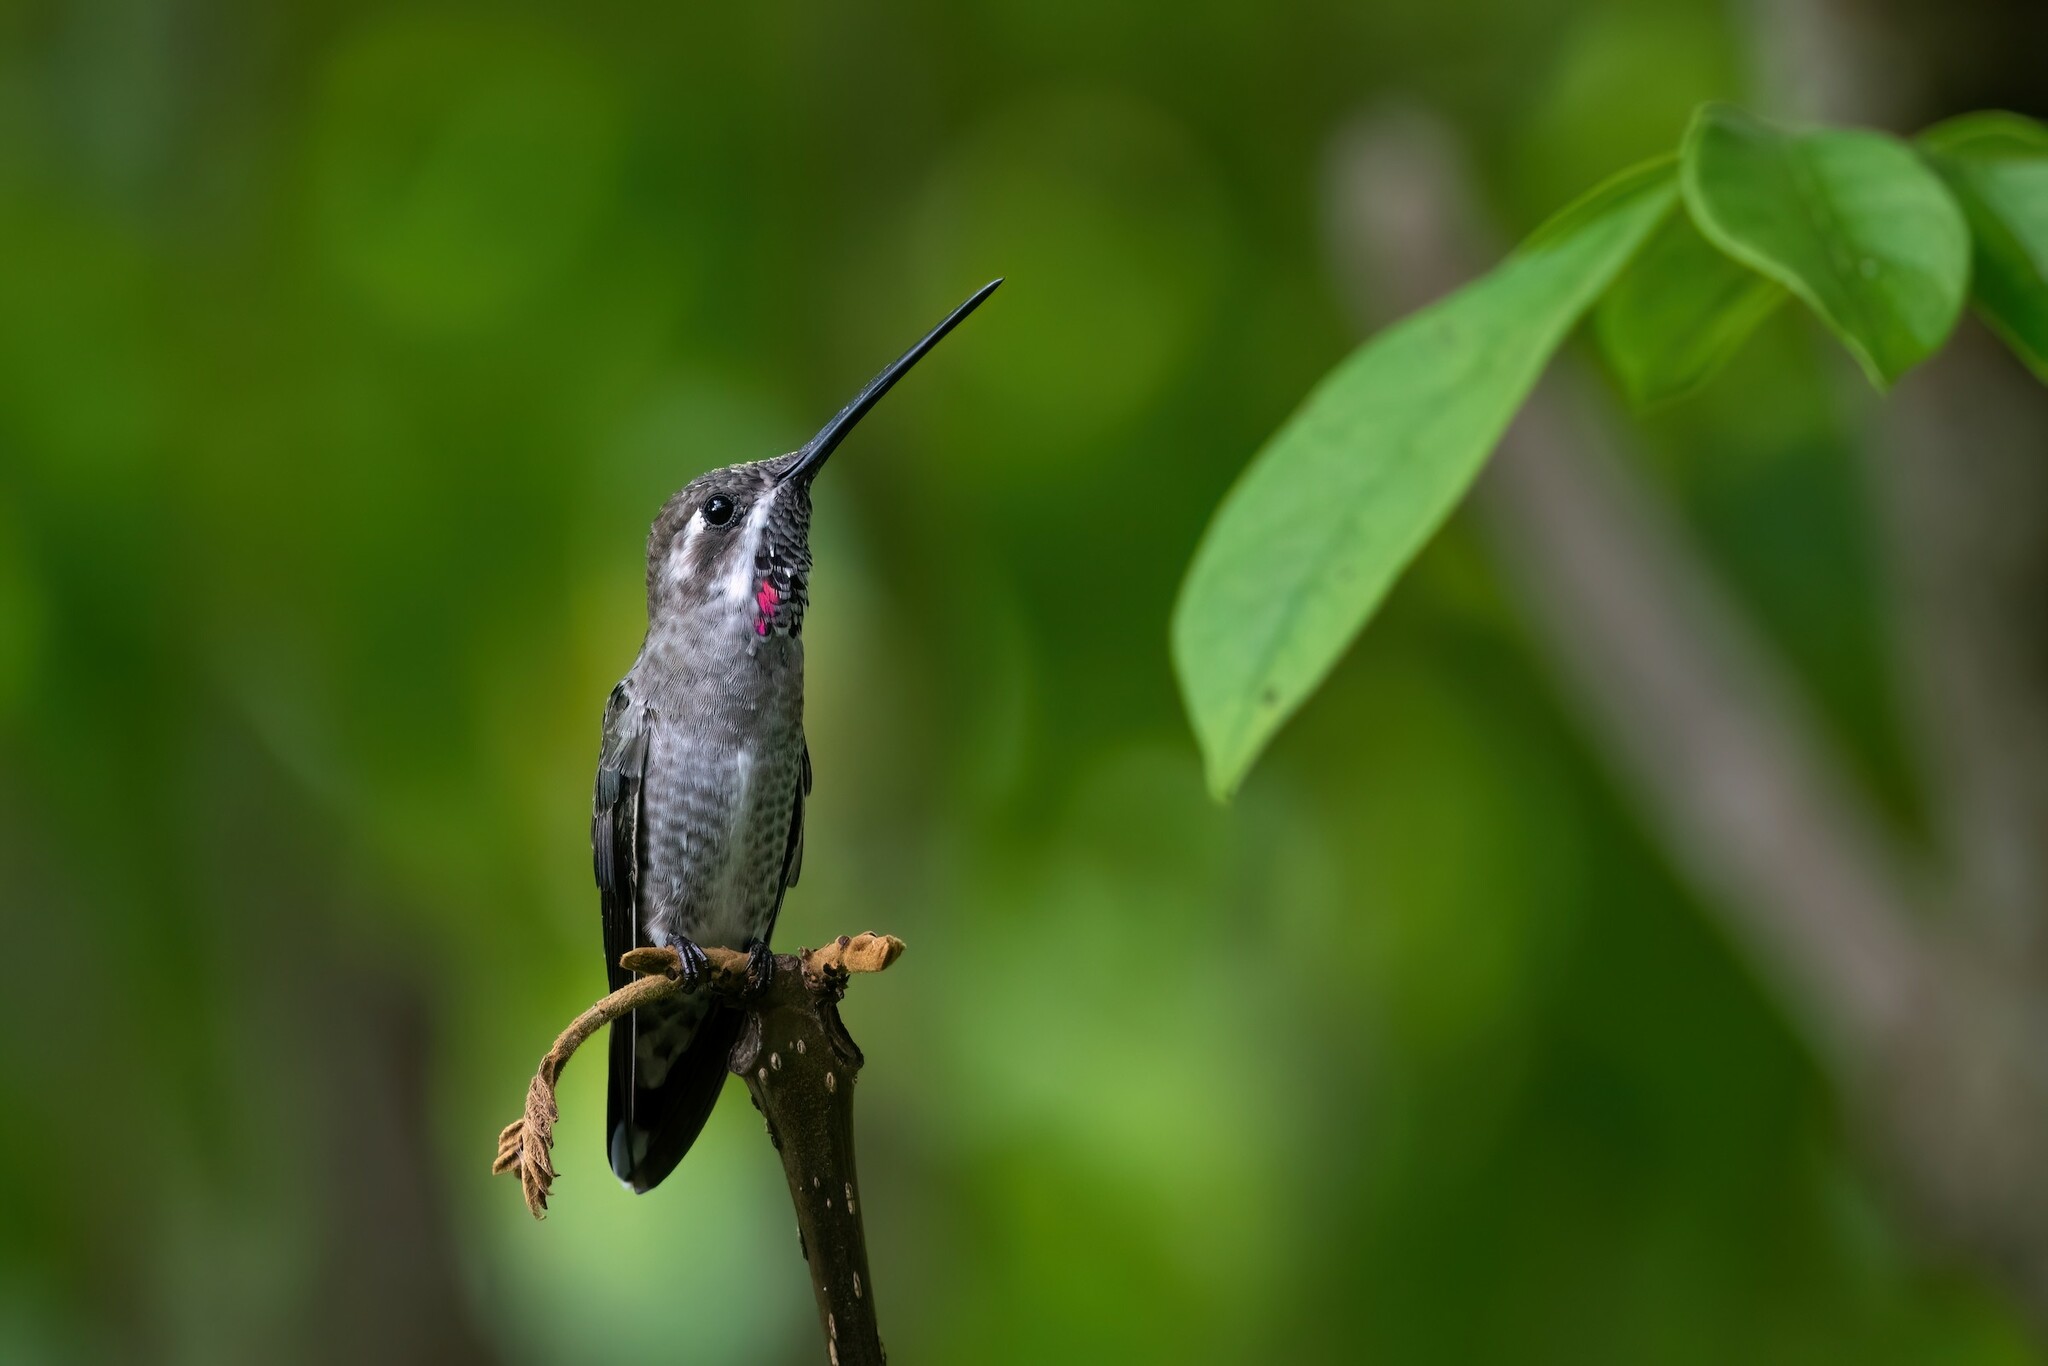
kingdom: Animalia
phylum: Chordata
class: Aves
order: Apodiformes
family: Trochilidae
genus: Heliomaster
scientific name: Heliomaster constantii
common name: Plain-capped starthroat
